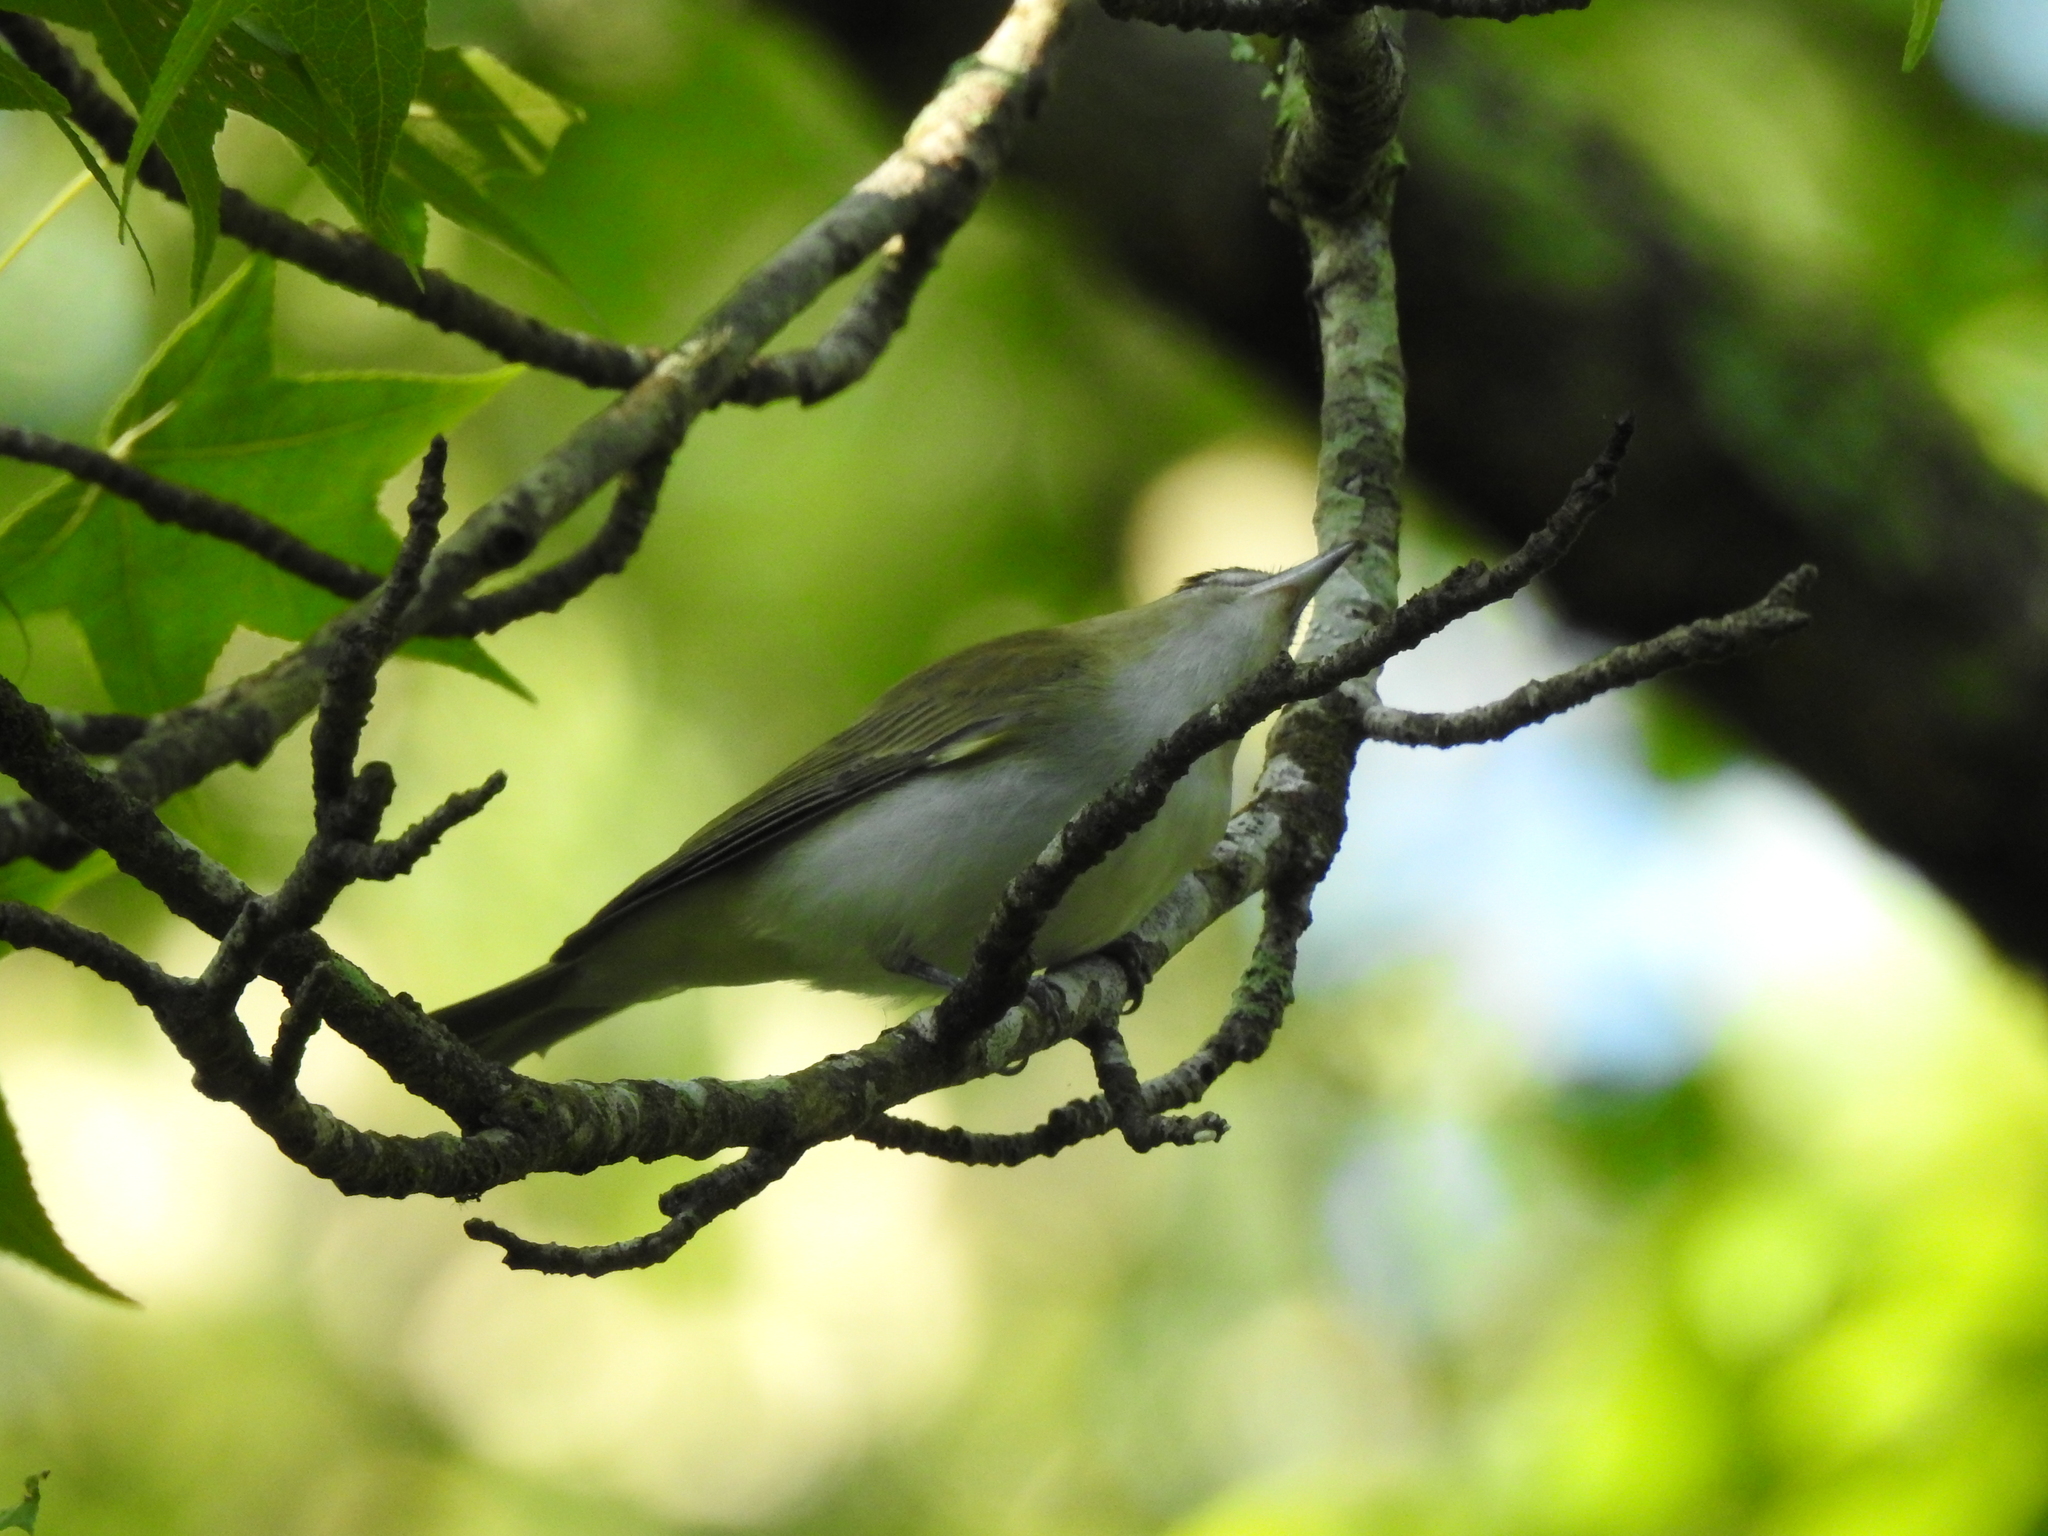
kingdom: Animalia
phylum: Chordata
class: Aves
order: Passeriformes
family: Vireonidae
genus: Vireo
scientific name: Vireo olivaceus
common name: Red-eyed vireo
